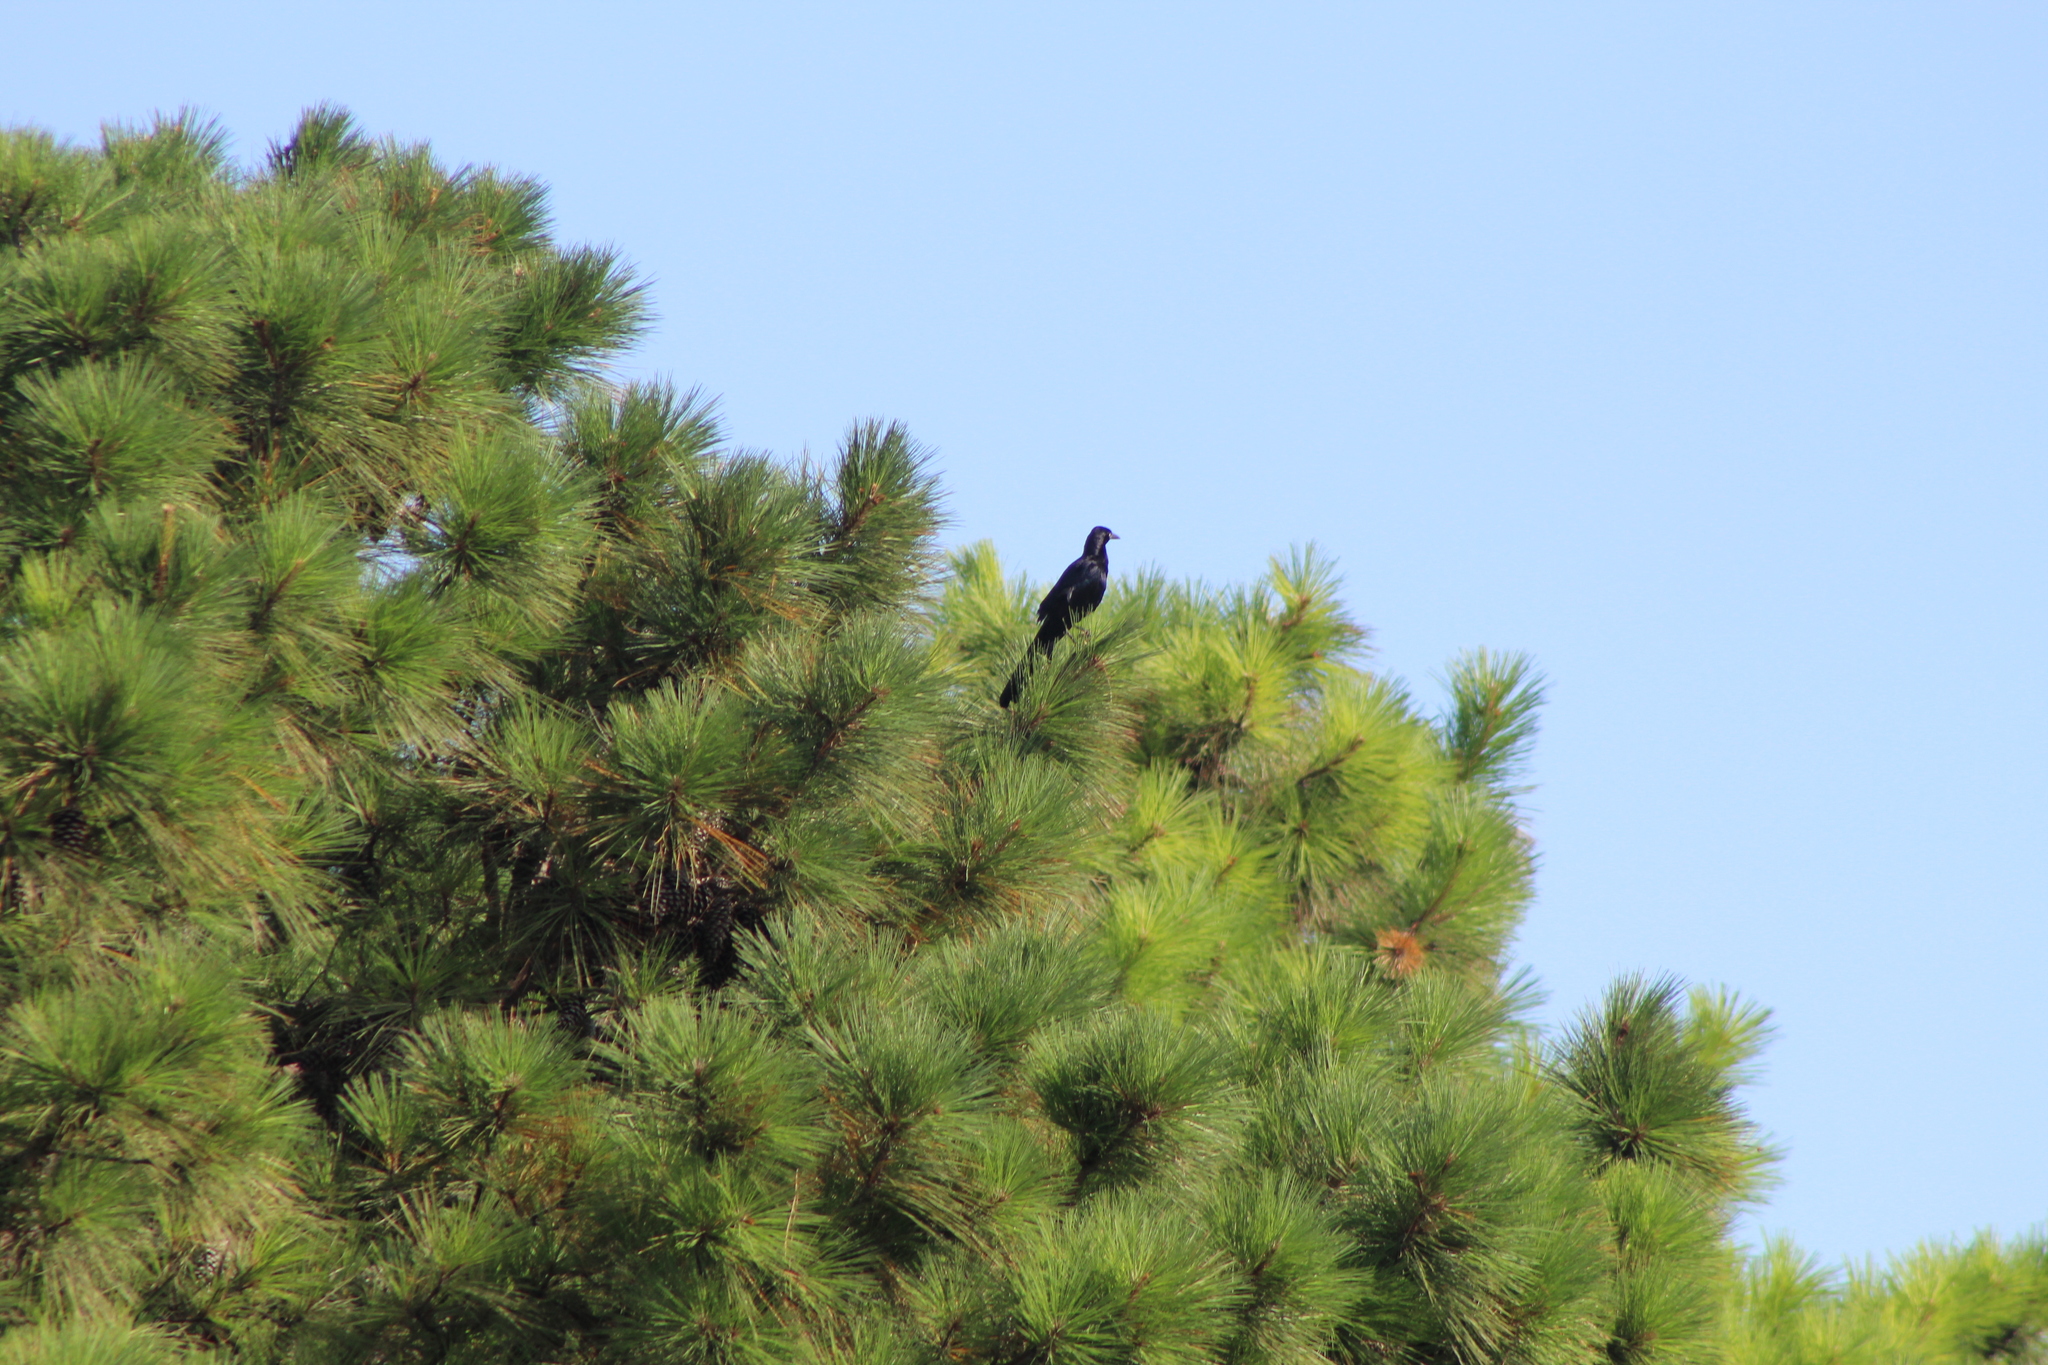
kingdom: Animalia
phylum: Chordata
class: Aves
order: Passeriformes
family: Icteridae
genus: Quiscalus
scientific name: Quiscalus mexicanus
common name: Great-tailed grackle
